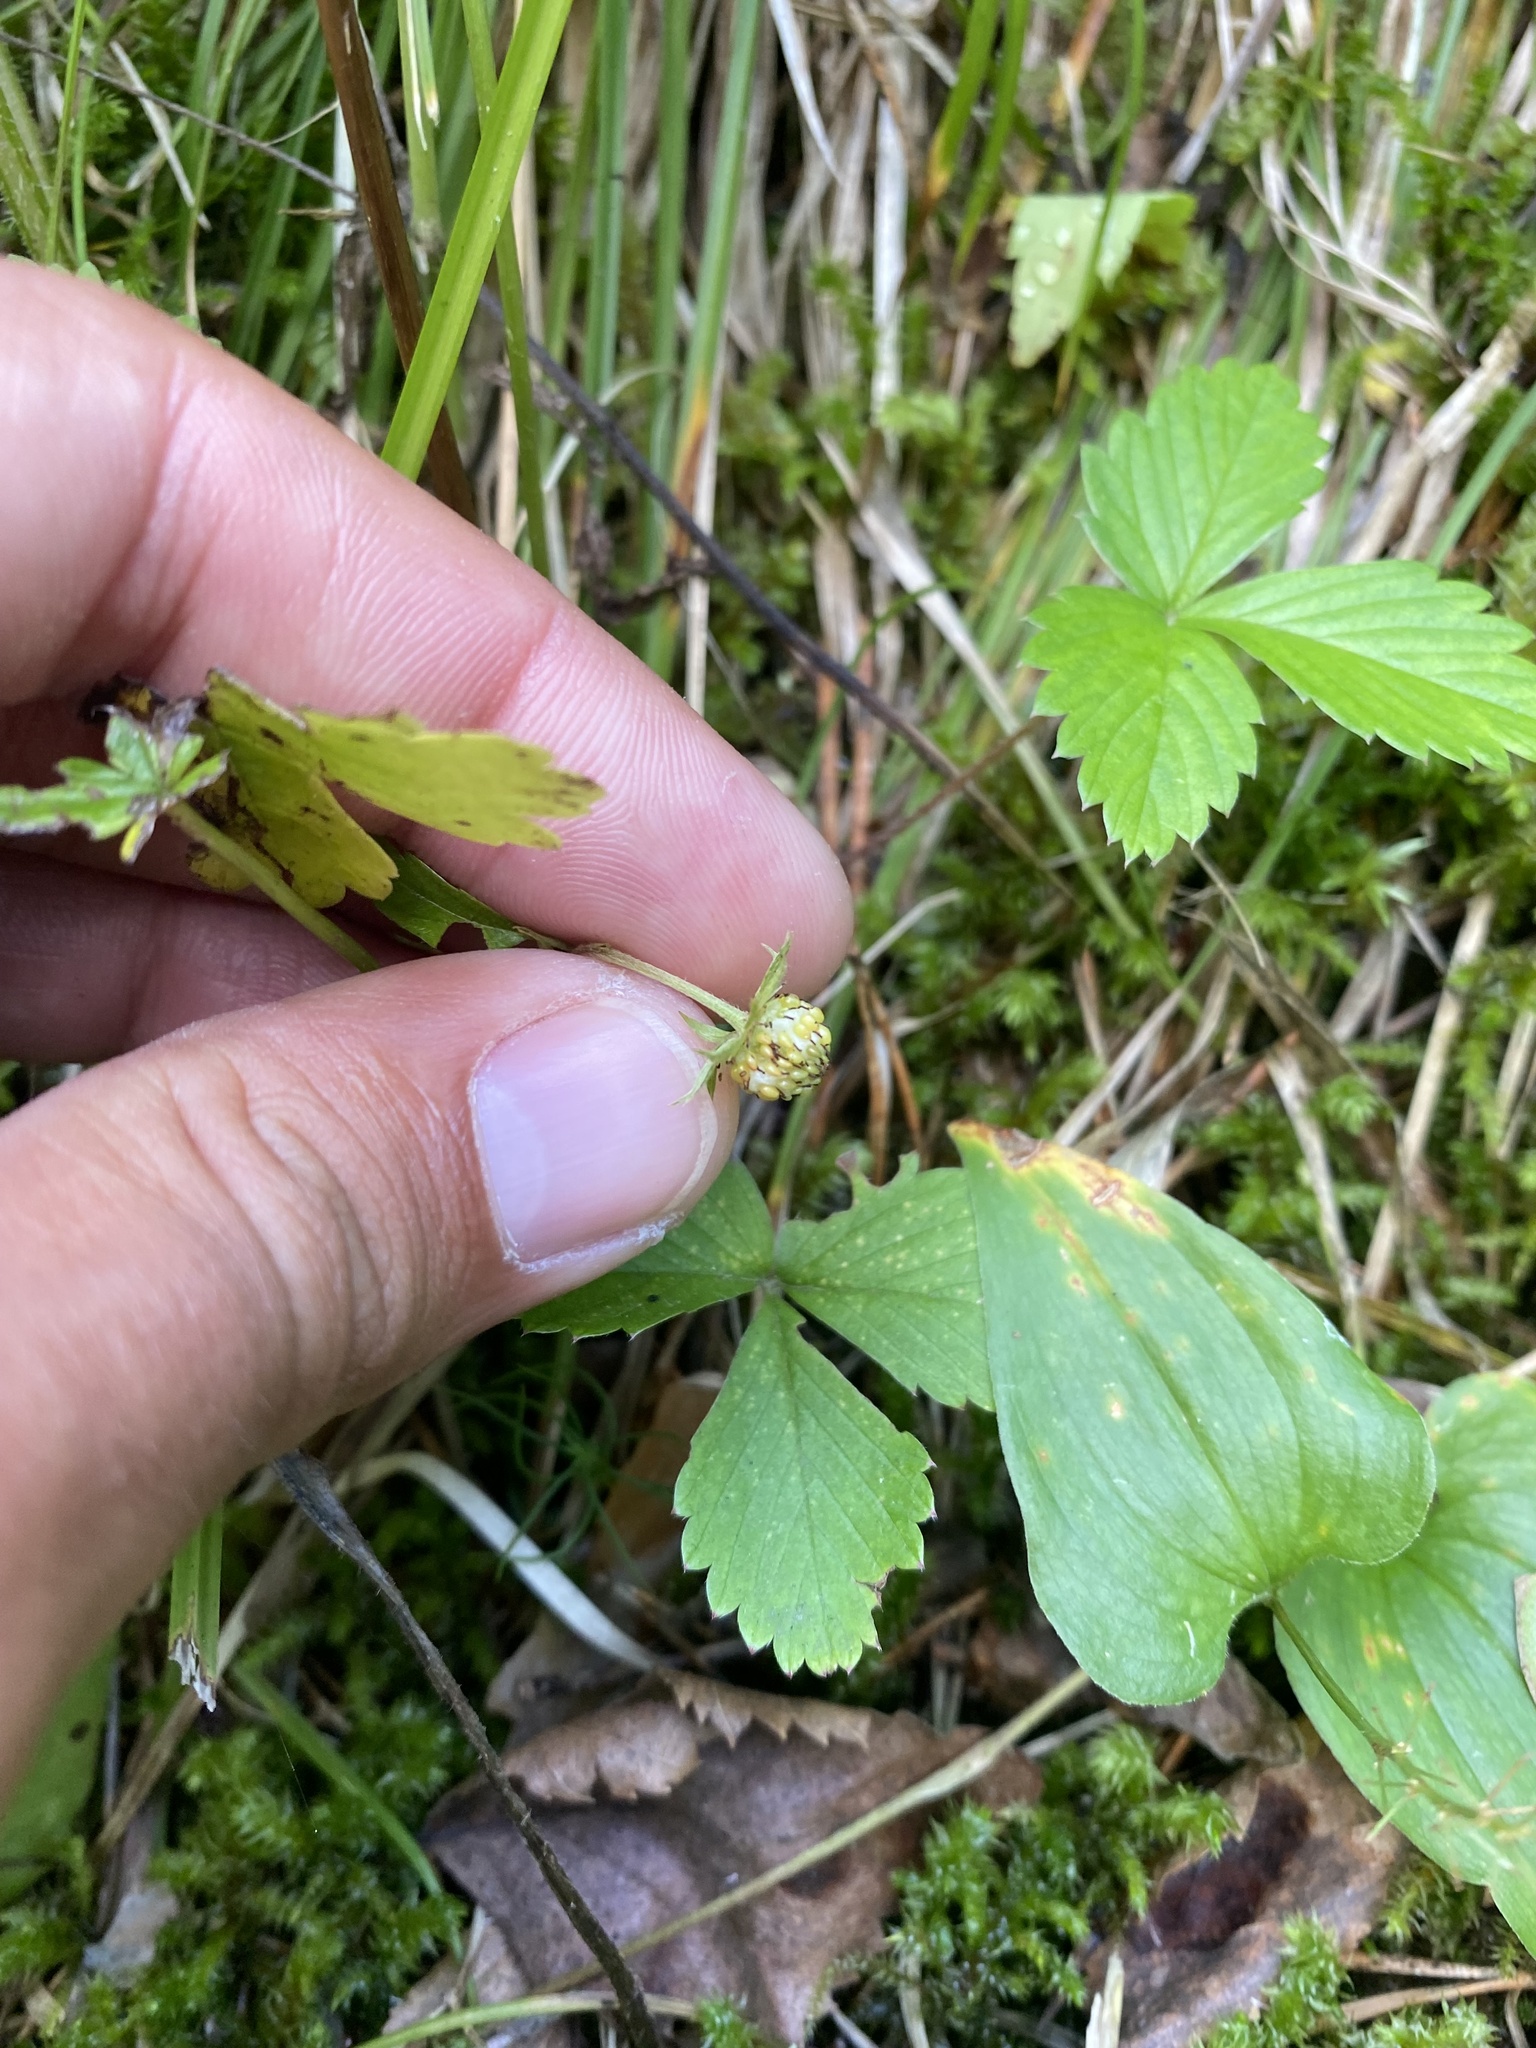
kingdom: Plantae
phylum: Tracheophyta
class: Magnoliopsida
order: Rosales
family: Rosaceae
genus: Fragaria
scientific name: Fragaria vesca
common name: Wild strawberry
